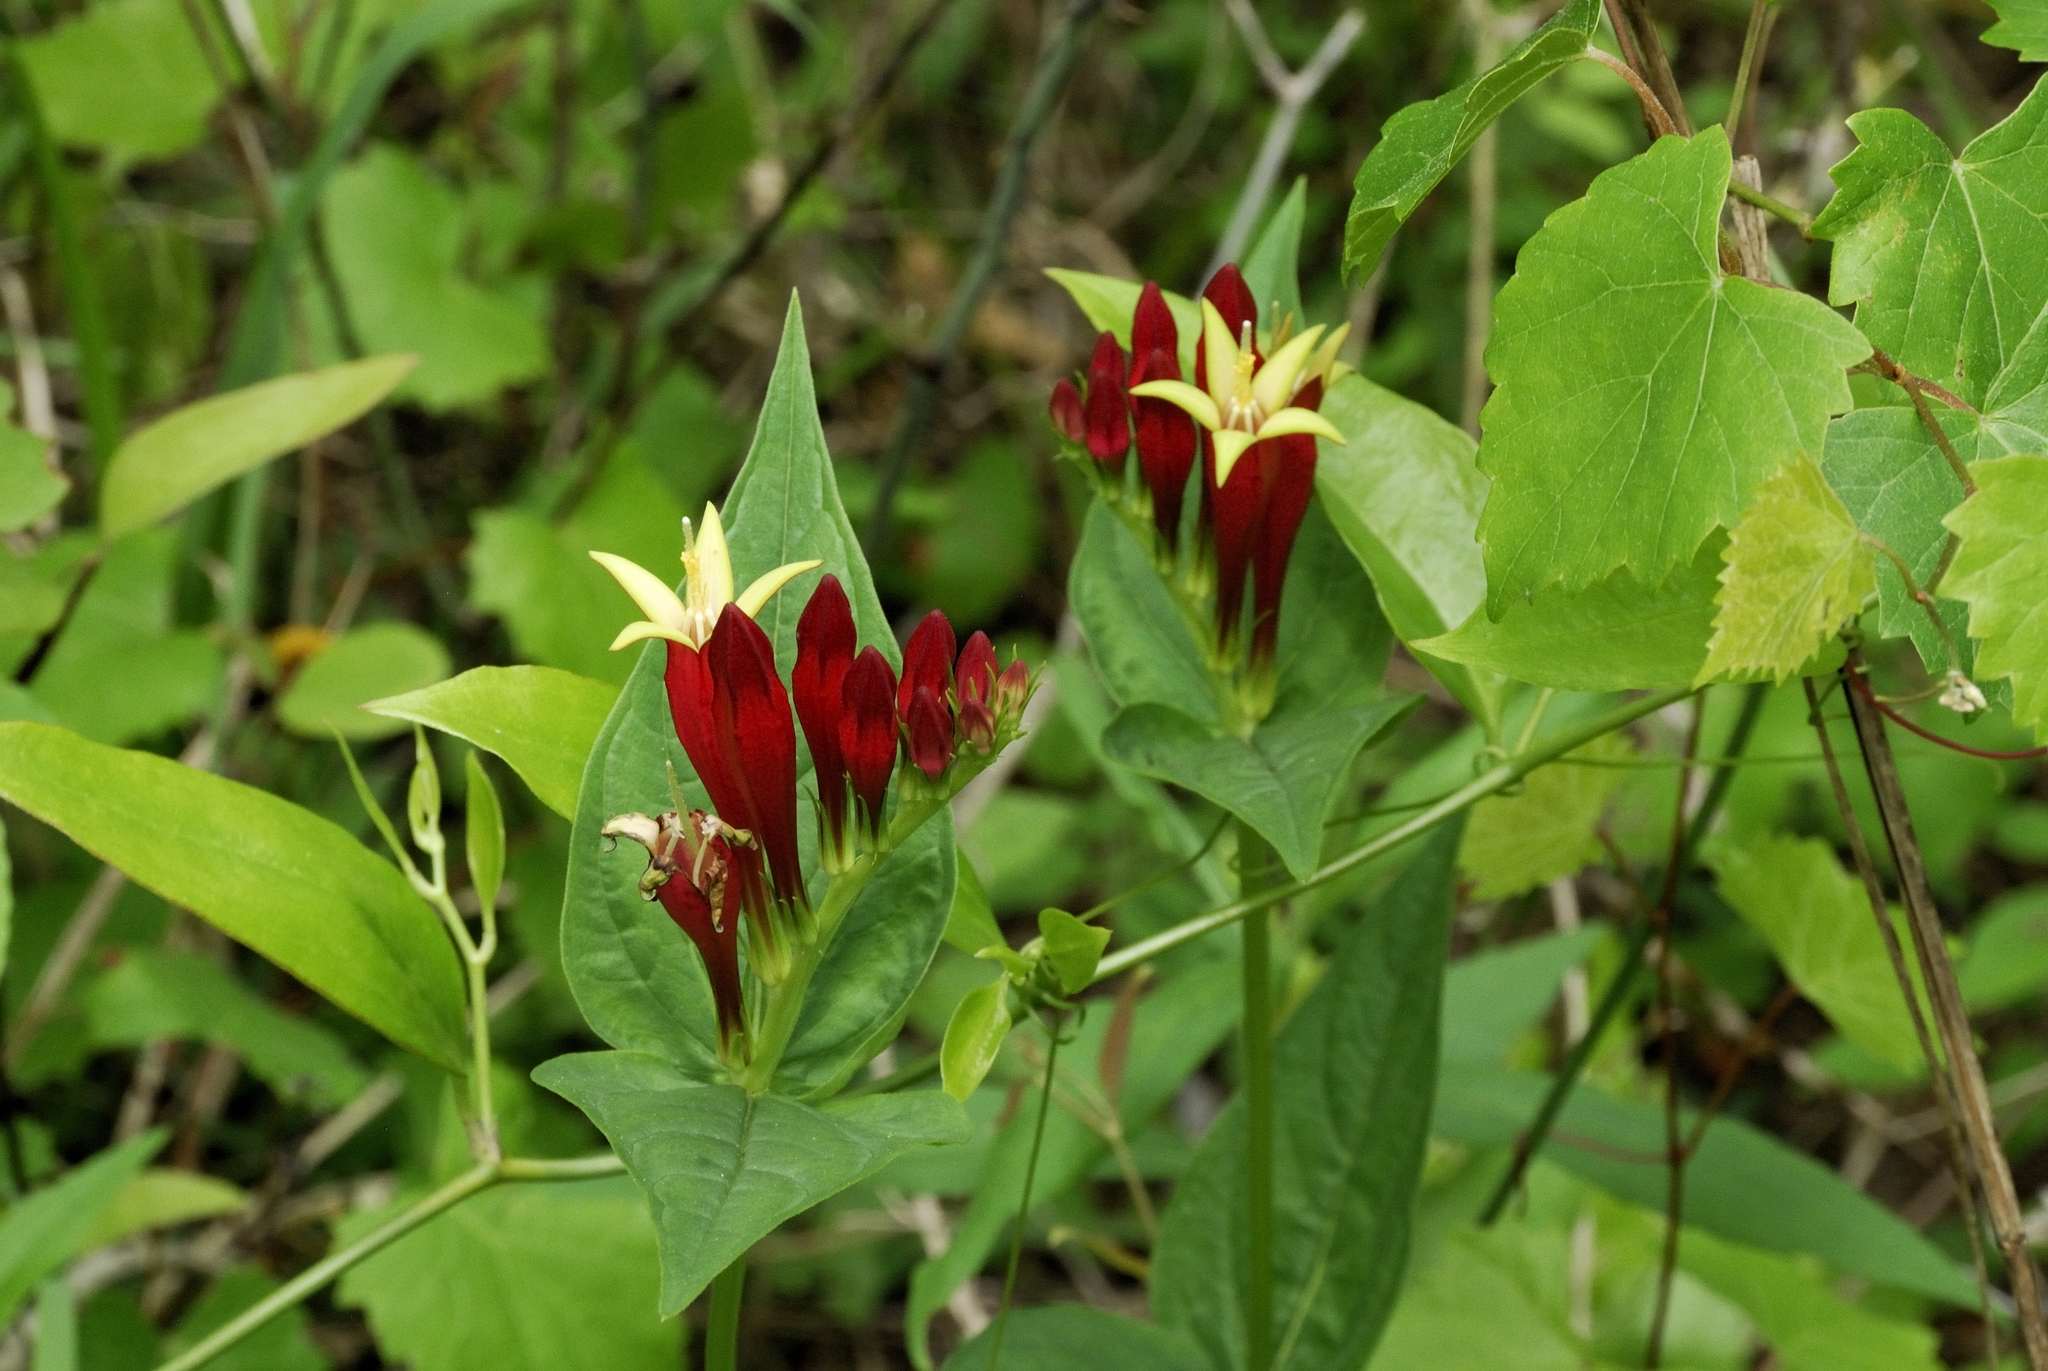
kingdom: Plantae
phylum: Tracheophyta
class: Magnoliopsida
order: Gentianales
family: Loganiaceae
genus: Spigelia
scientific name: Spigelia marilandica
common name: Indian-pink
